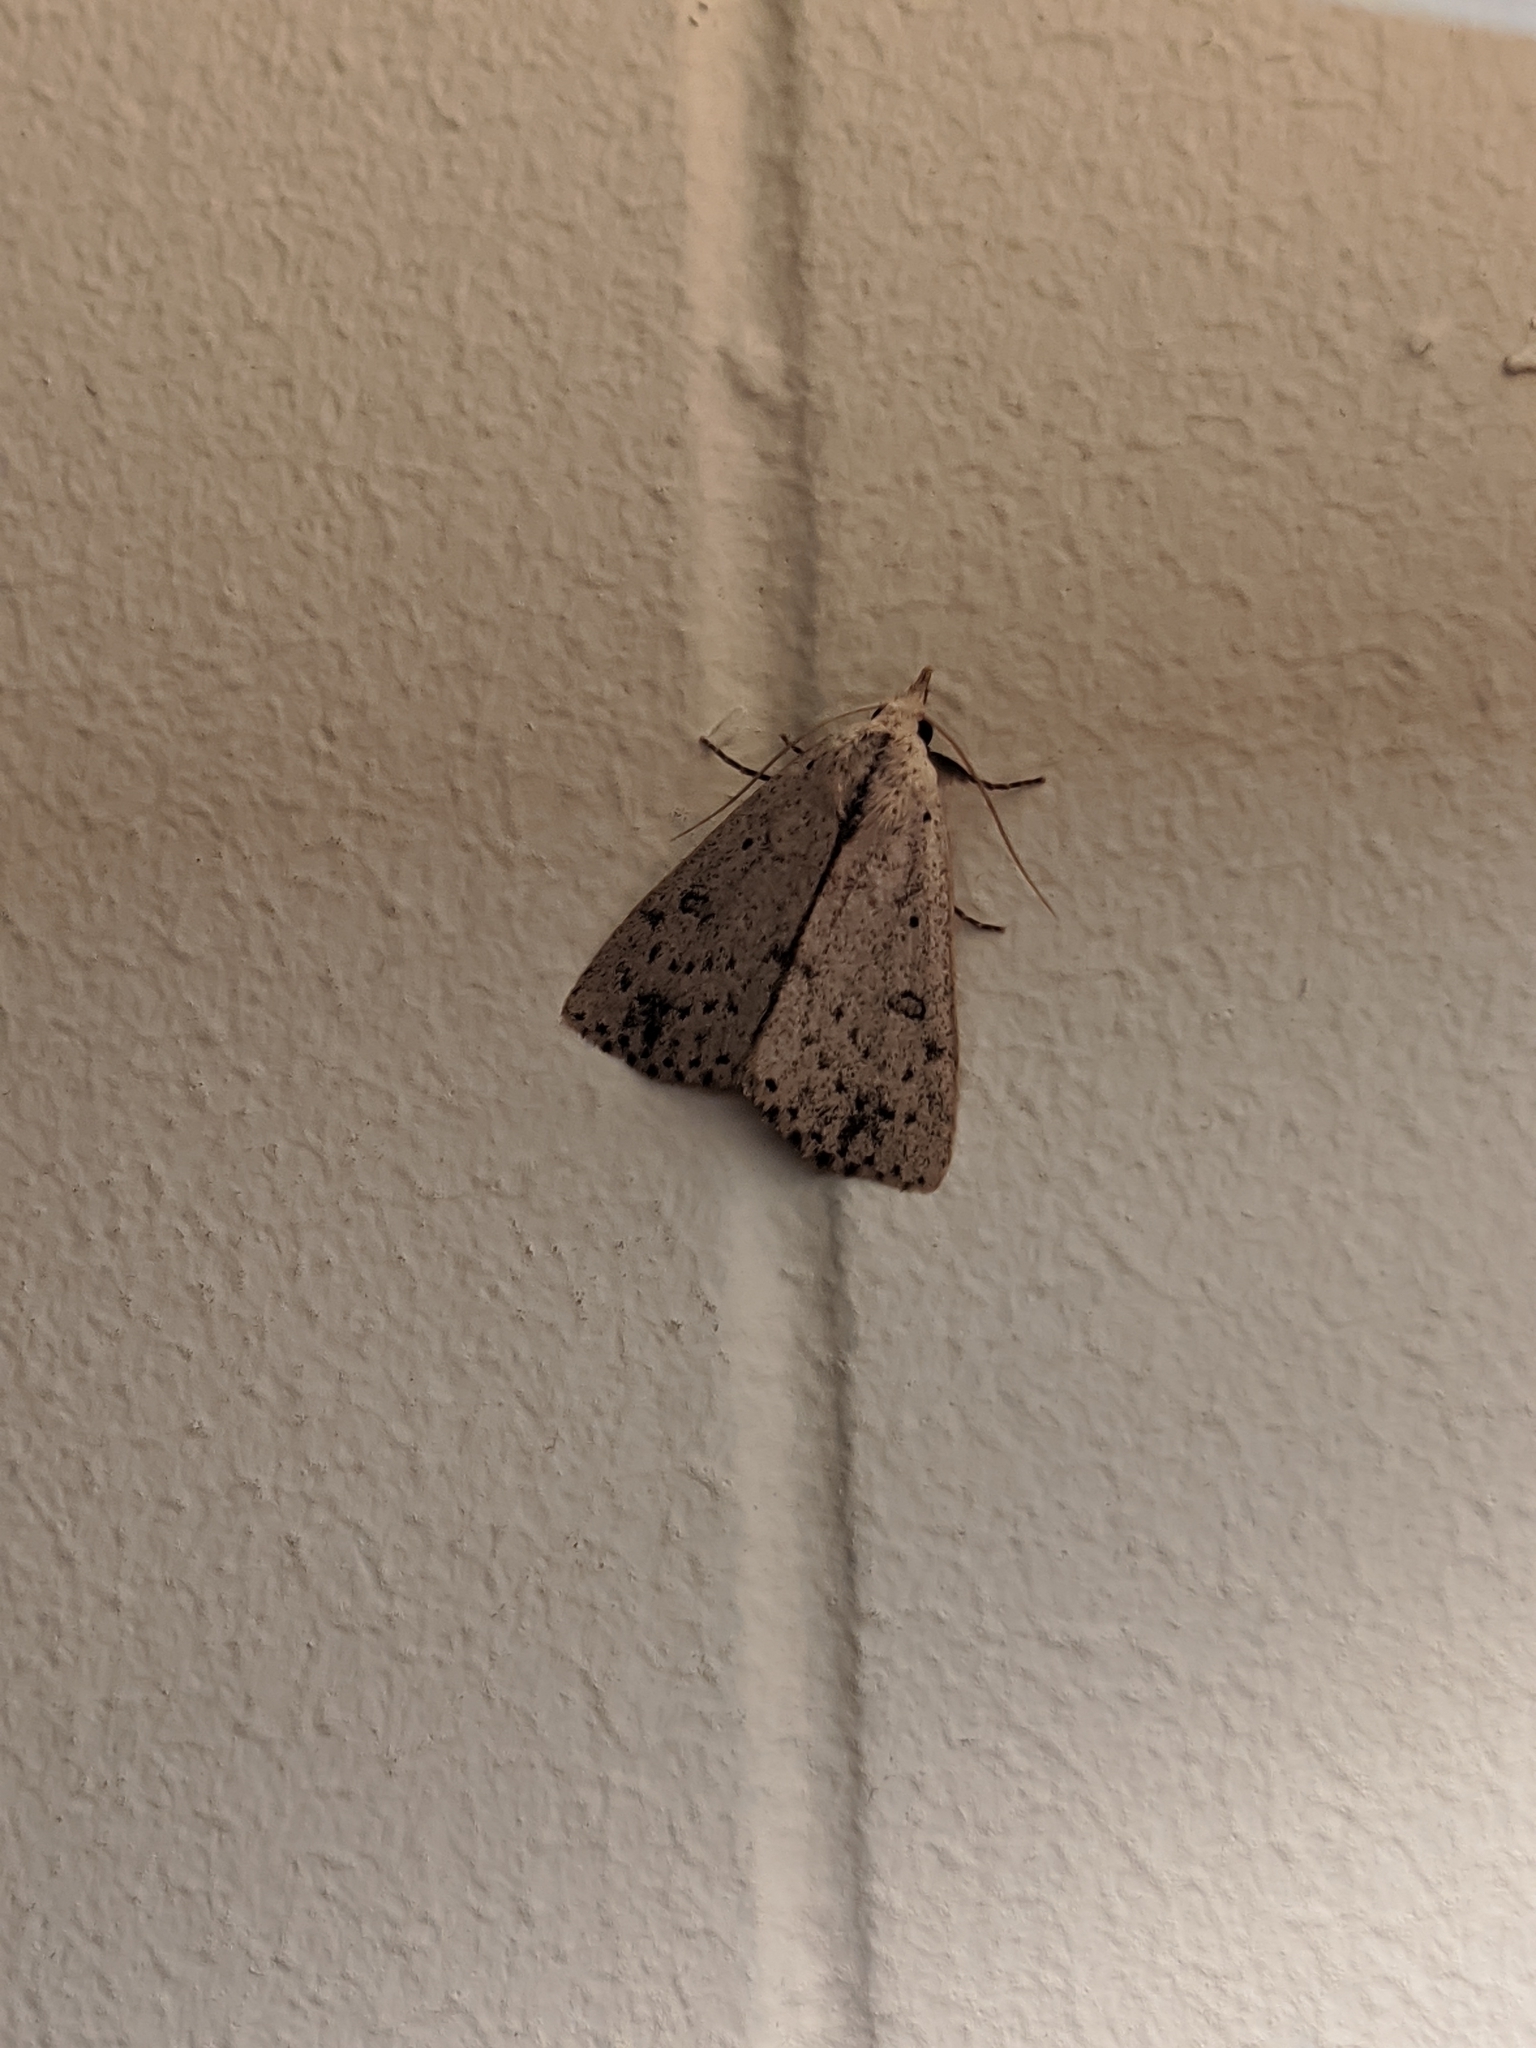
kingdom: Animalia
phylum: Arthropoda
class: Insecta
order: Lepidoptera
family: Erebidae
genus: Scolecocampa
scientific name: Scolecocampa liburna
